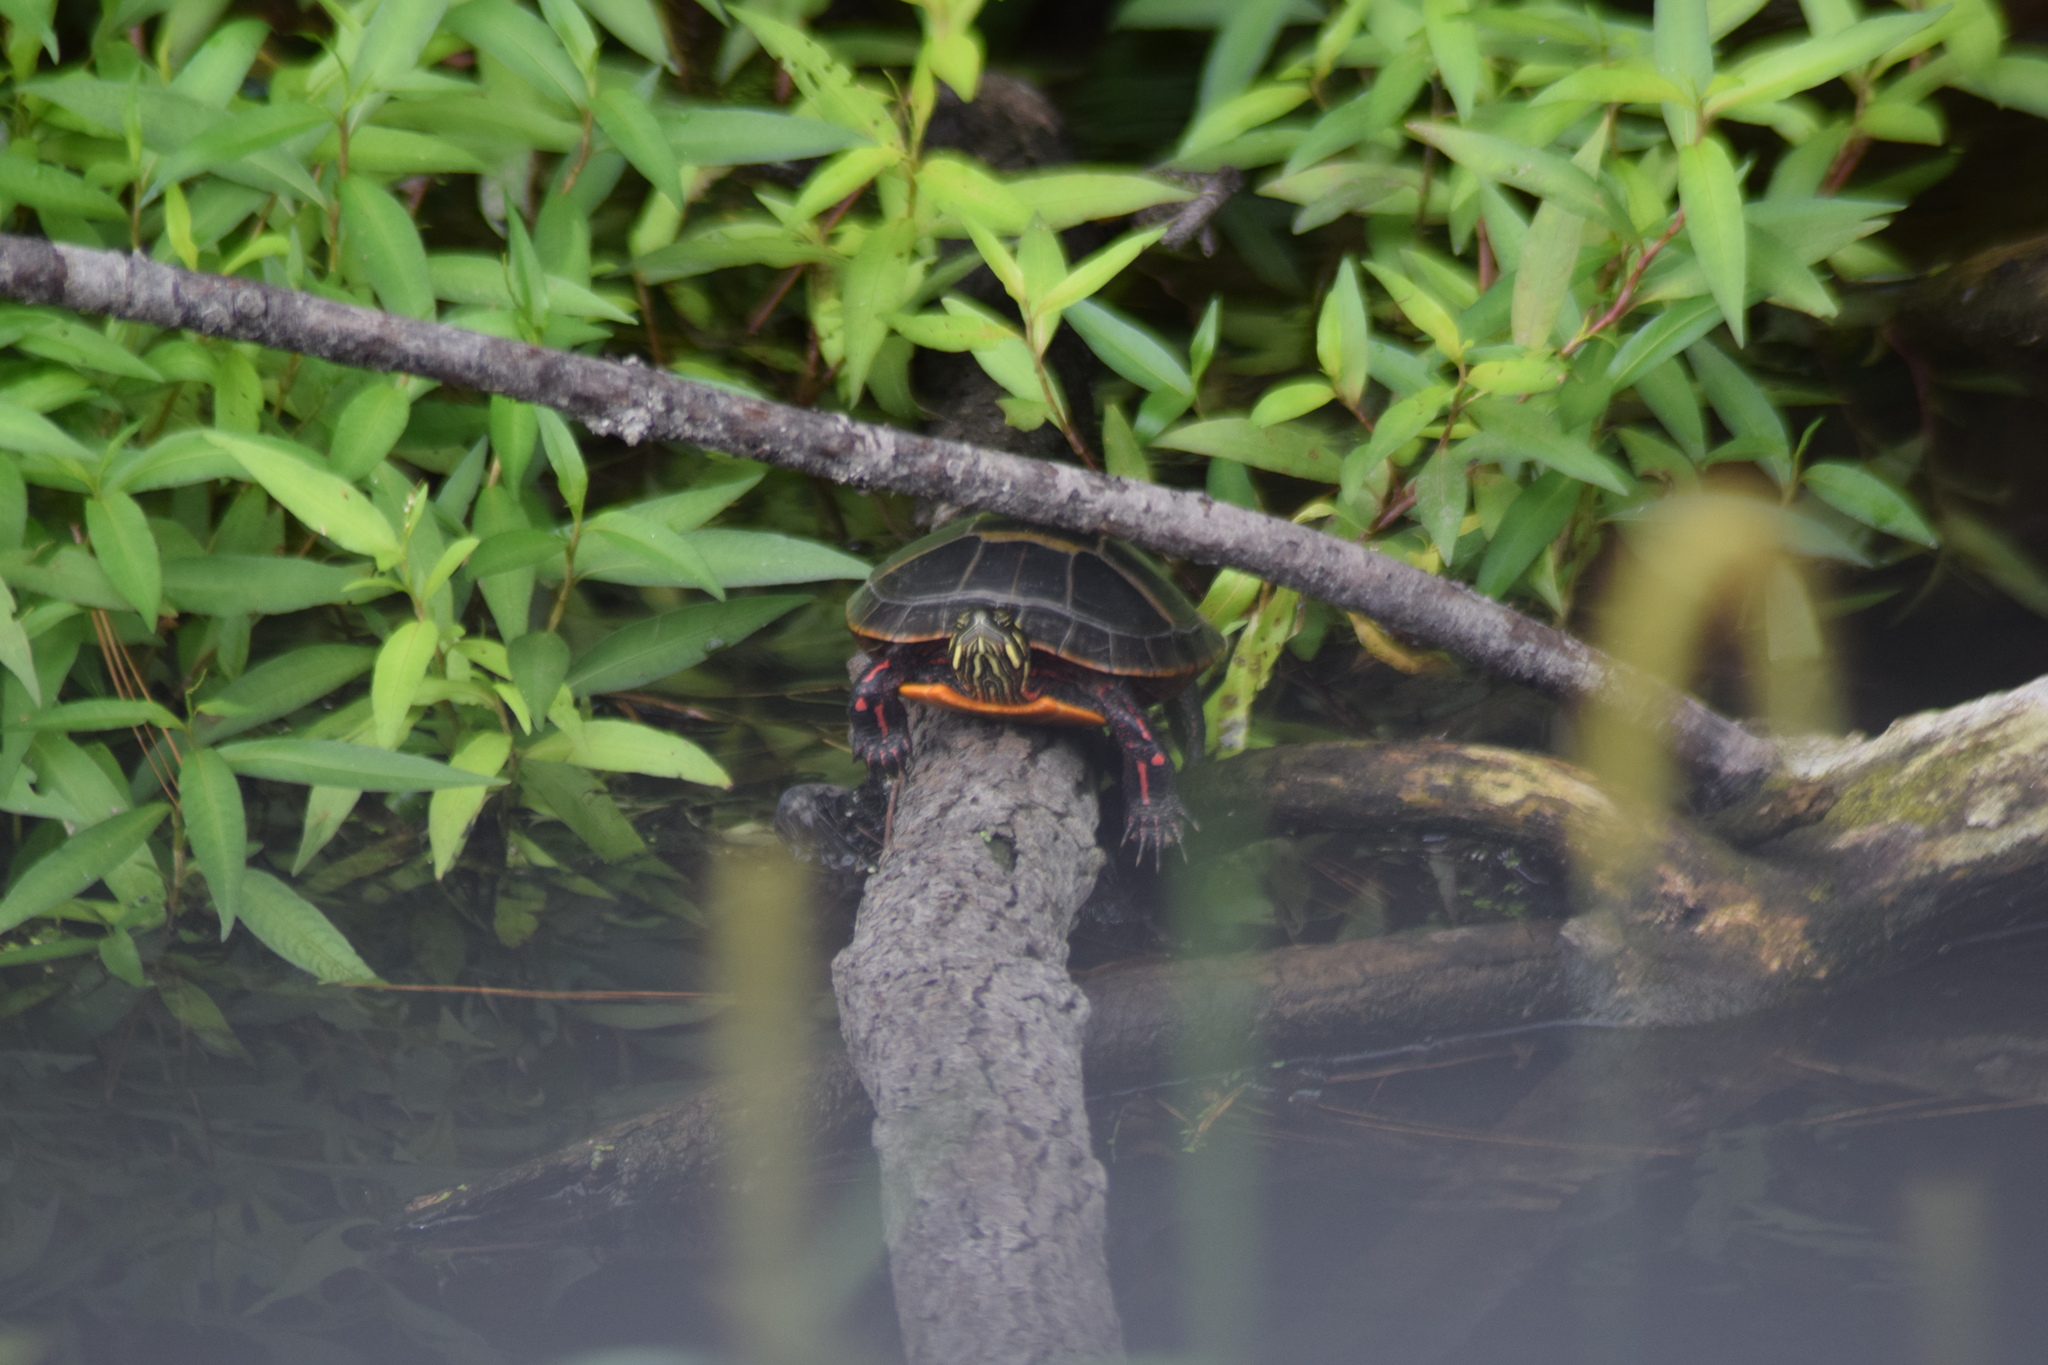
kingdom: Animalia
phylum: Chordata
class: Testudines
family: Emydidae
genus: Chrysemys
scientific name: Chrysemys picta
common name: Painted turtle
